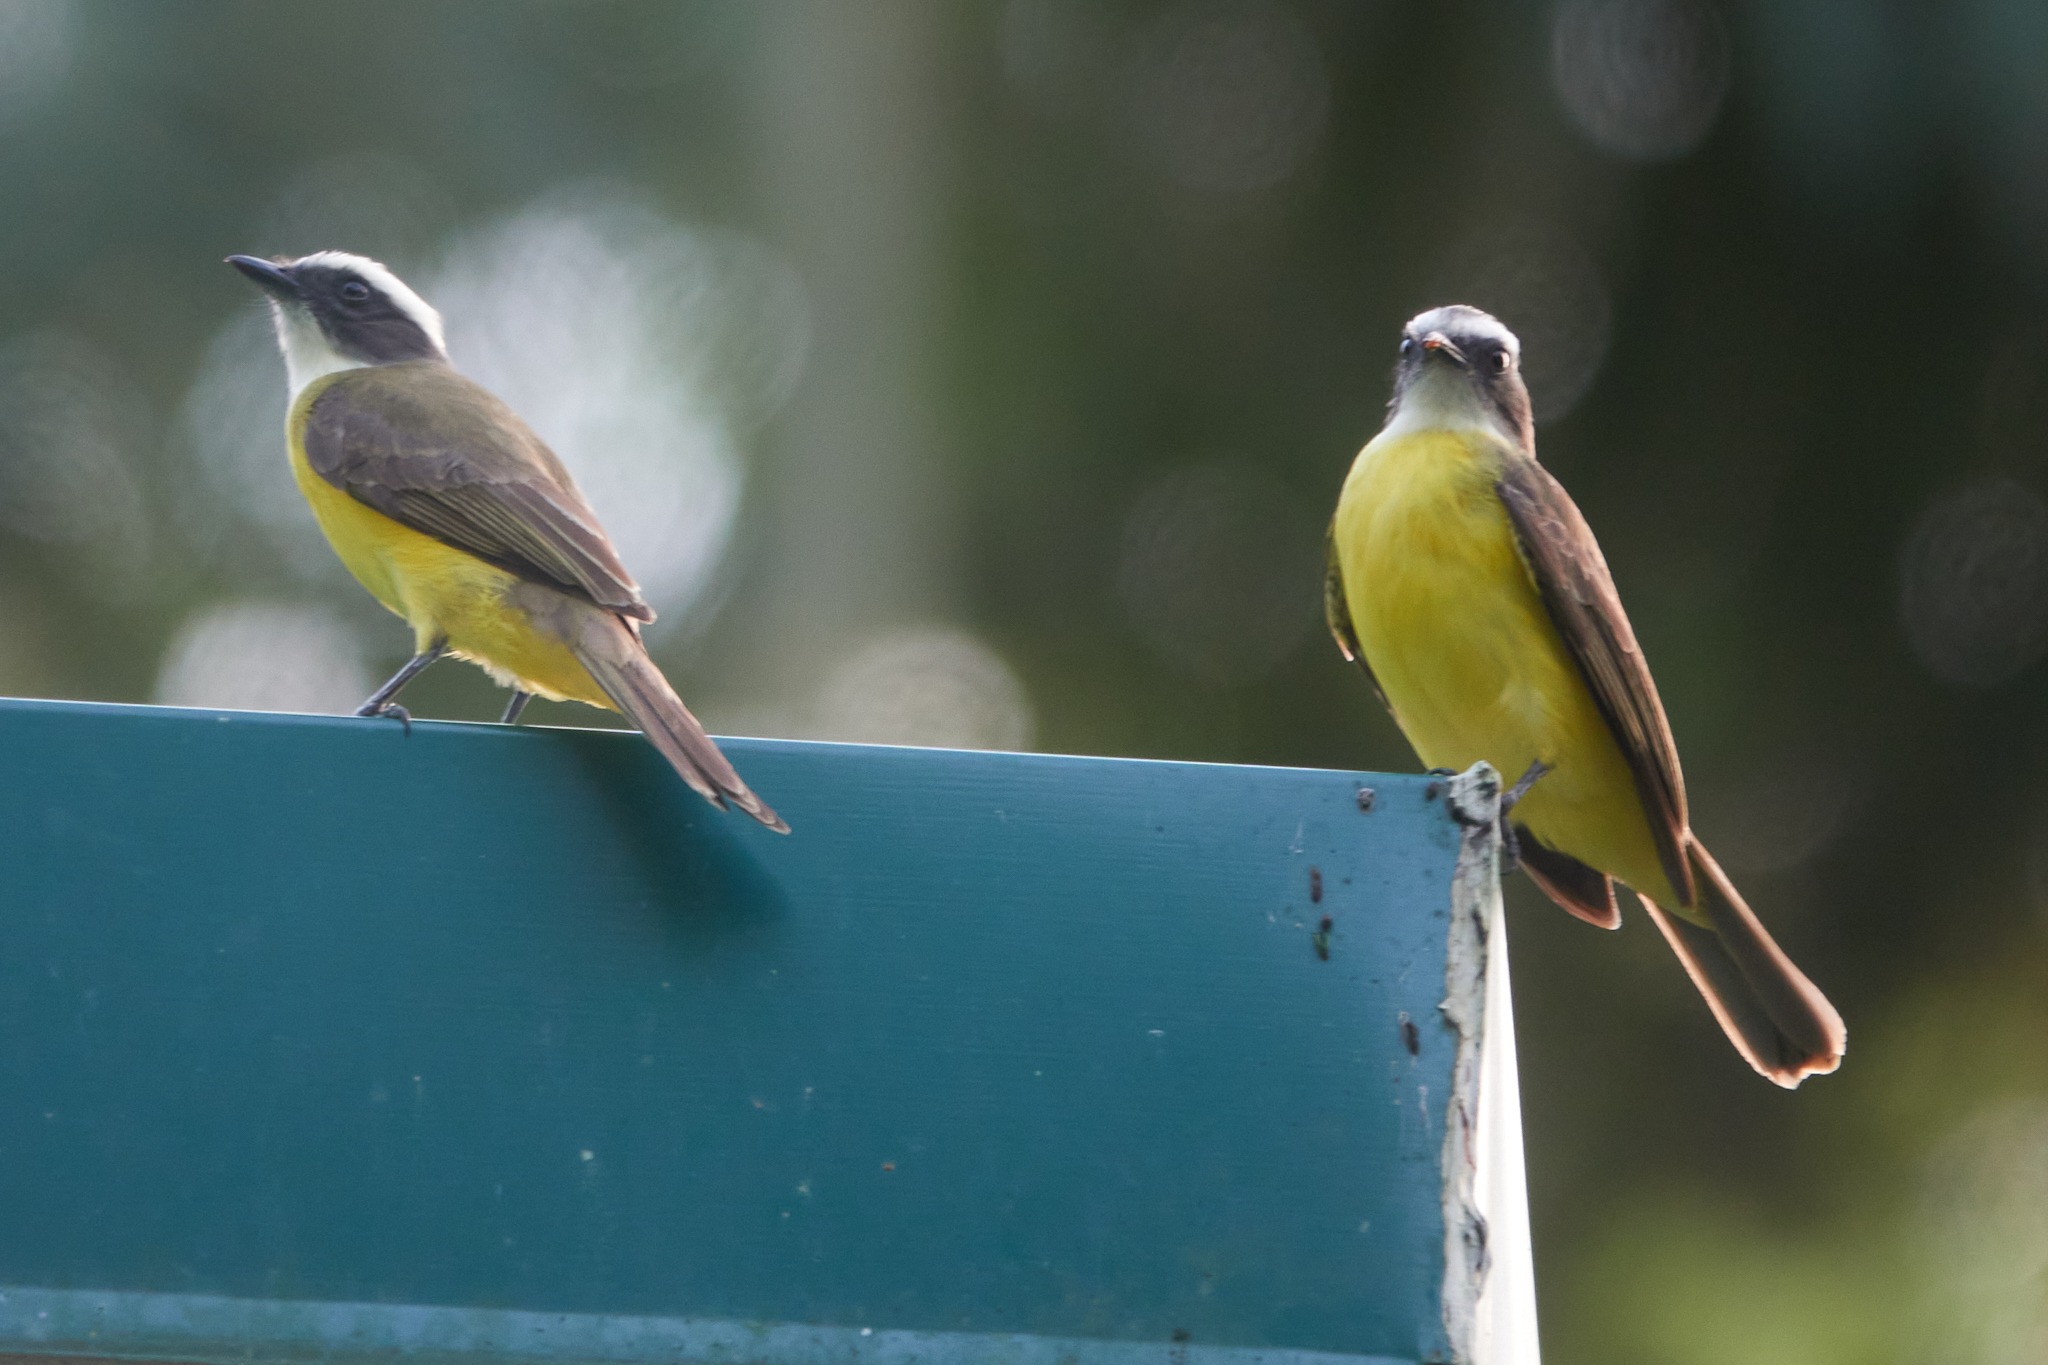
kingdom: Animalia
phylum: Chordata
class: Aves
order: Passeriformes
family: Tyrannidae
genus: Myiozetetes
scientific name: Myiozetetes similis
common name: Social flycatcher
